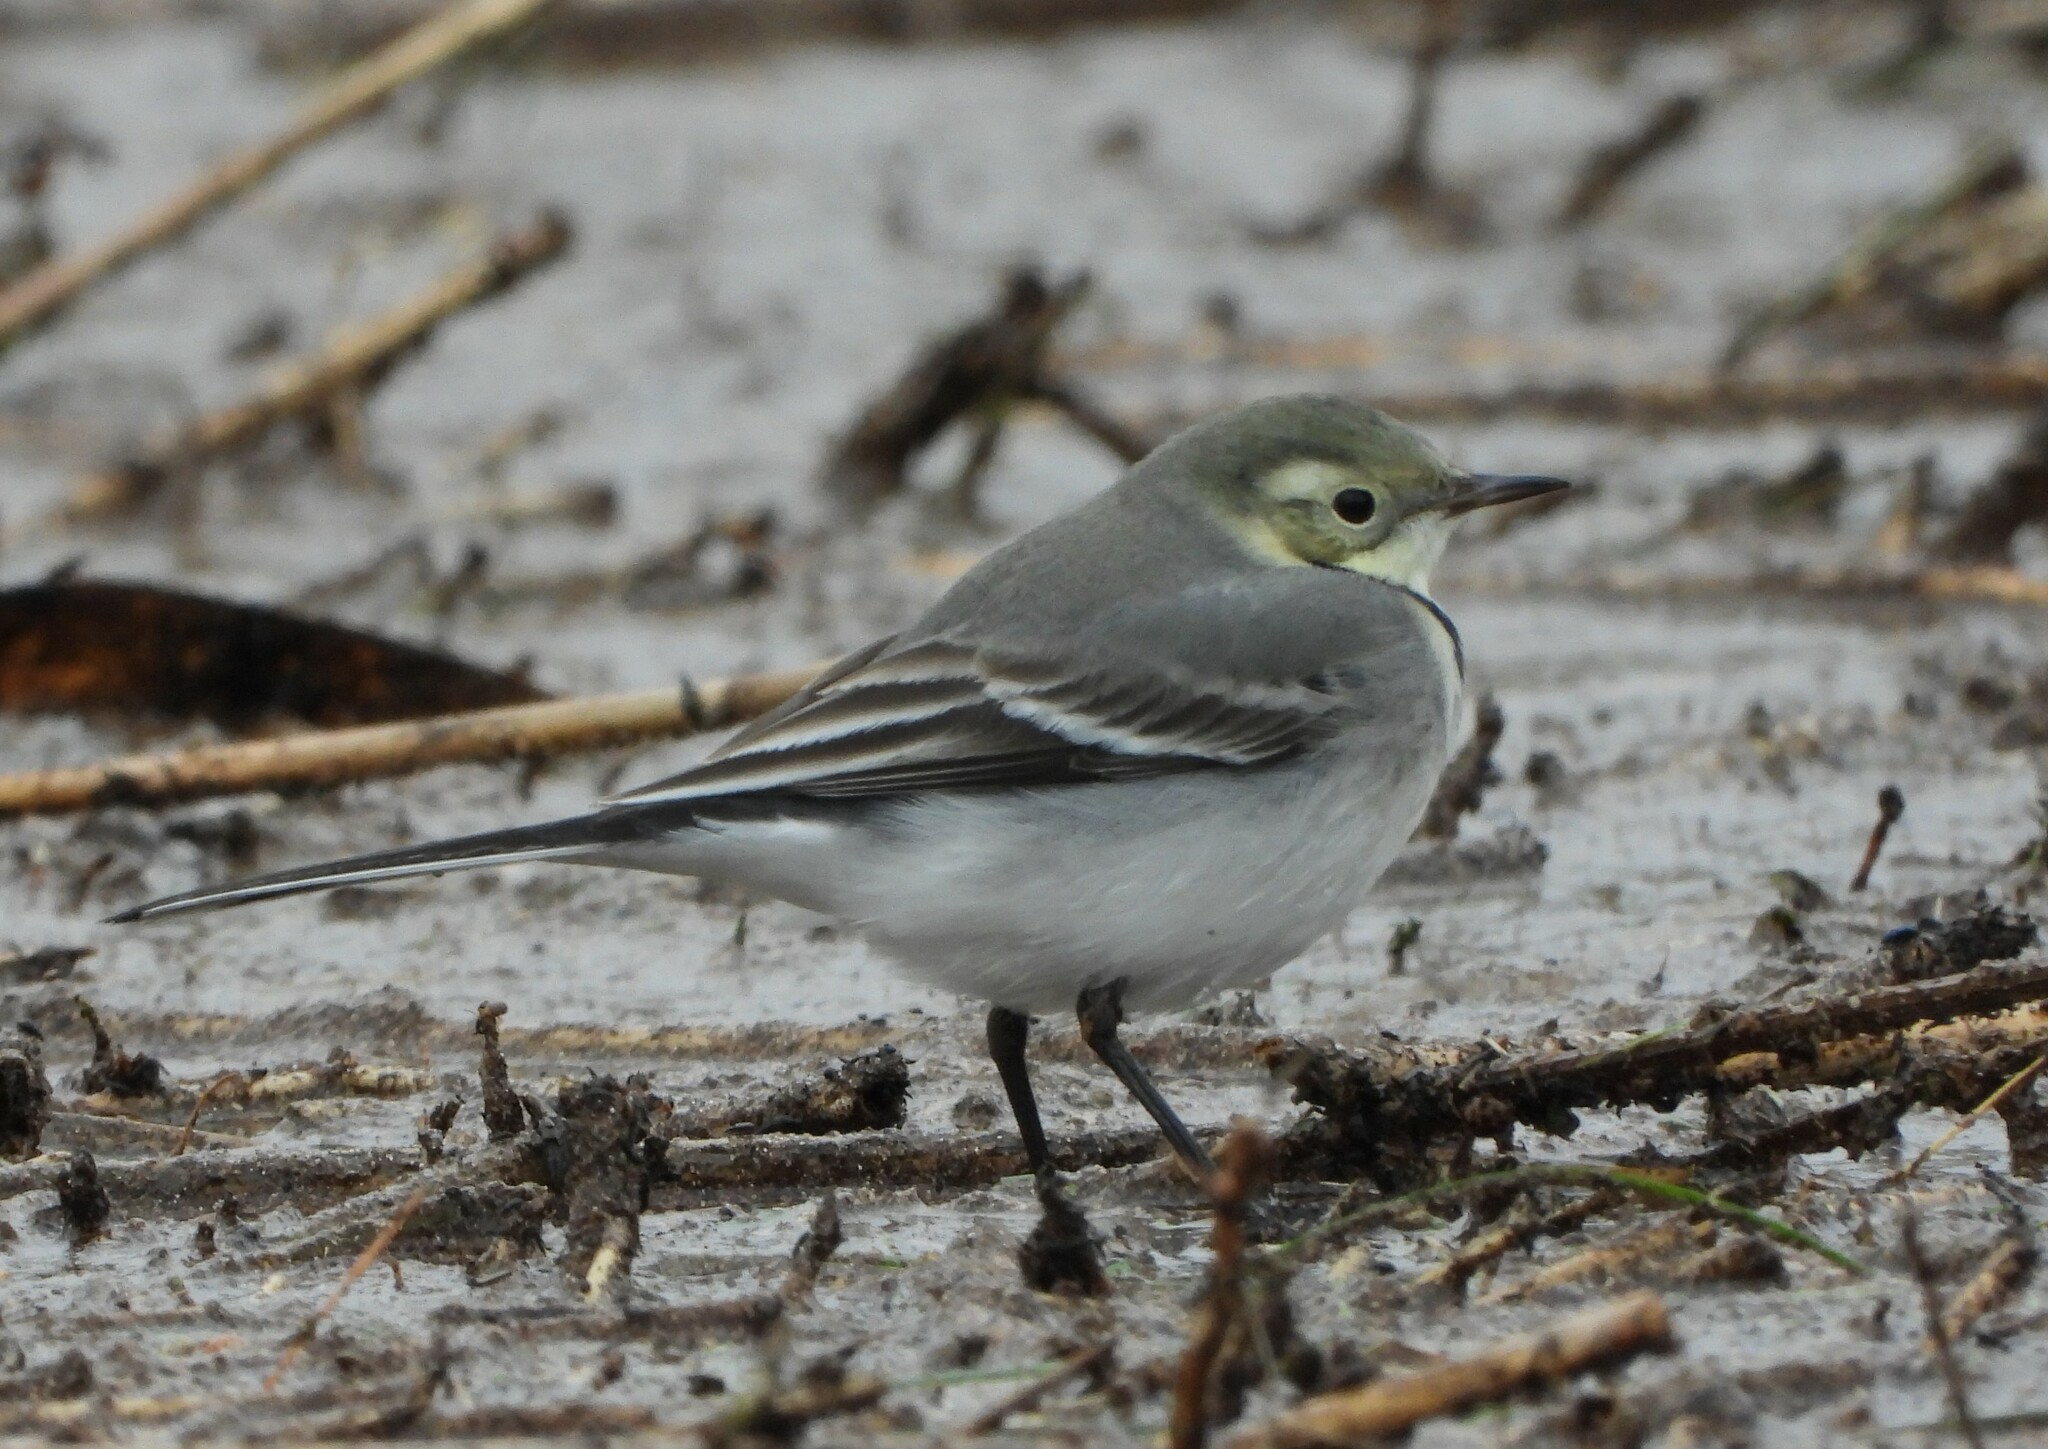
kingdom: Animalia
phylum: Chordata
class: Aves
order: Passeriformes
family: Motacillidae
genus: Motacilla
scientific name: Motacilla alba
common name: White wagtail
